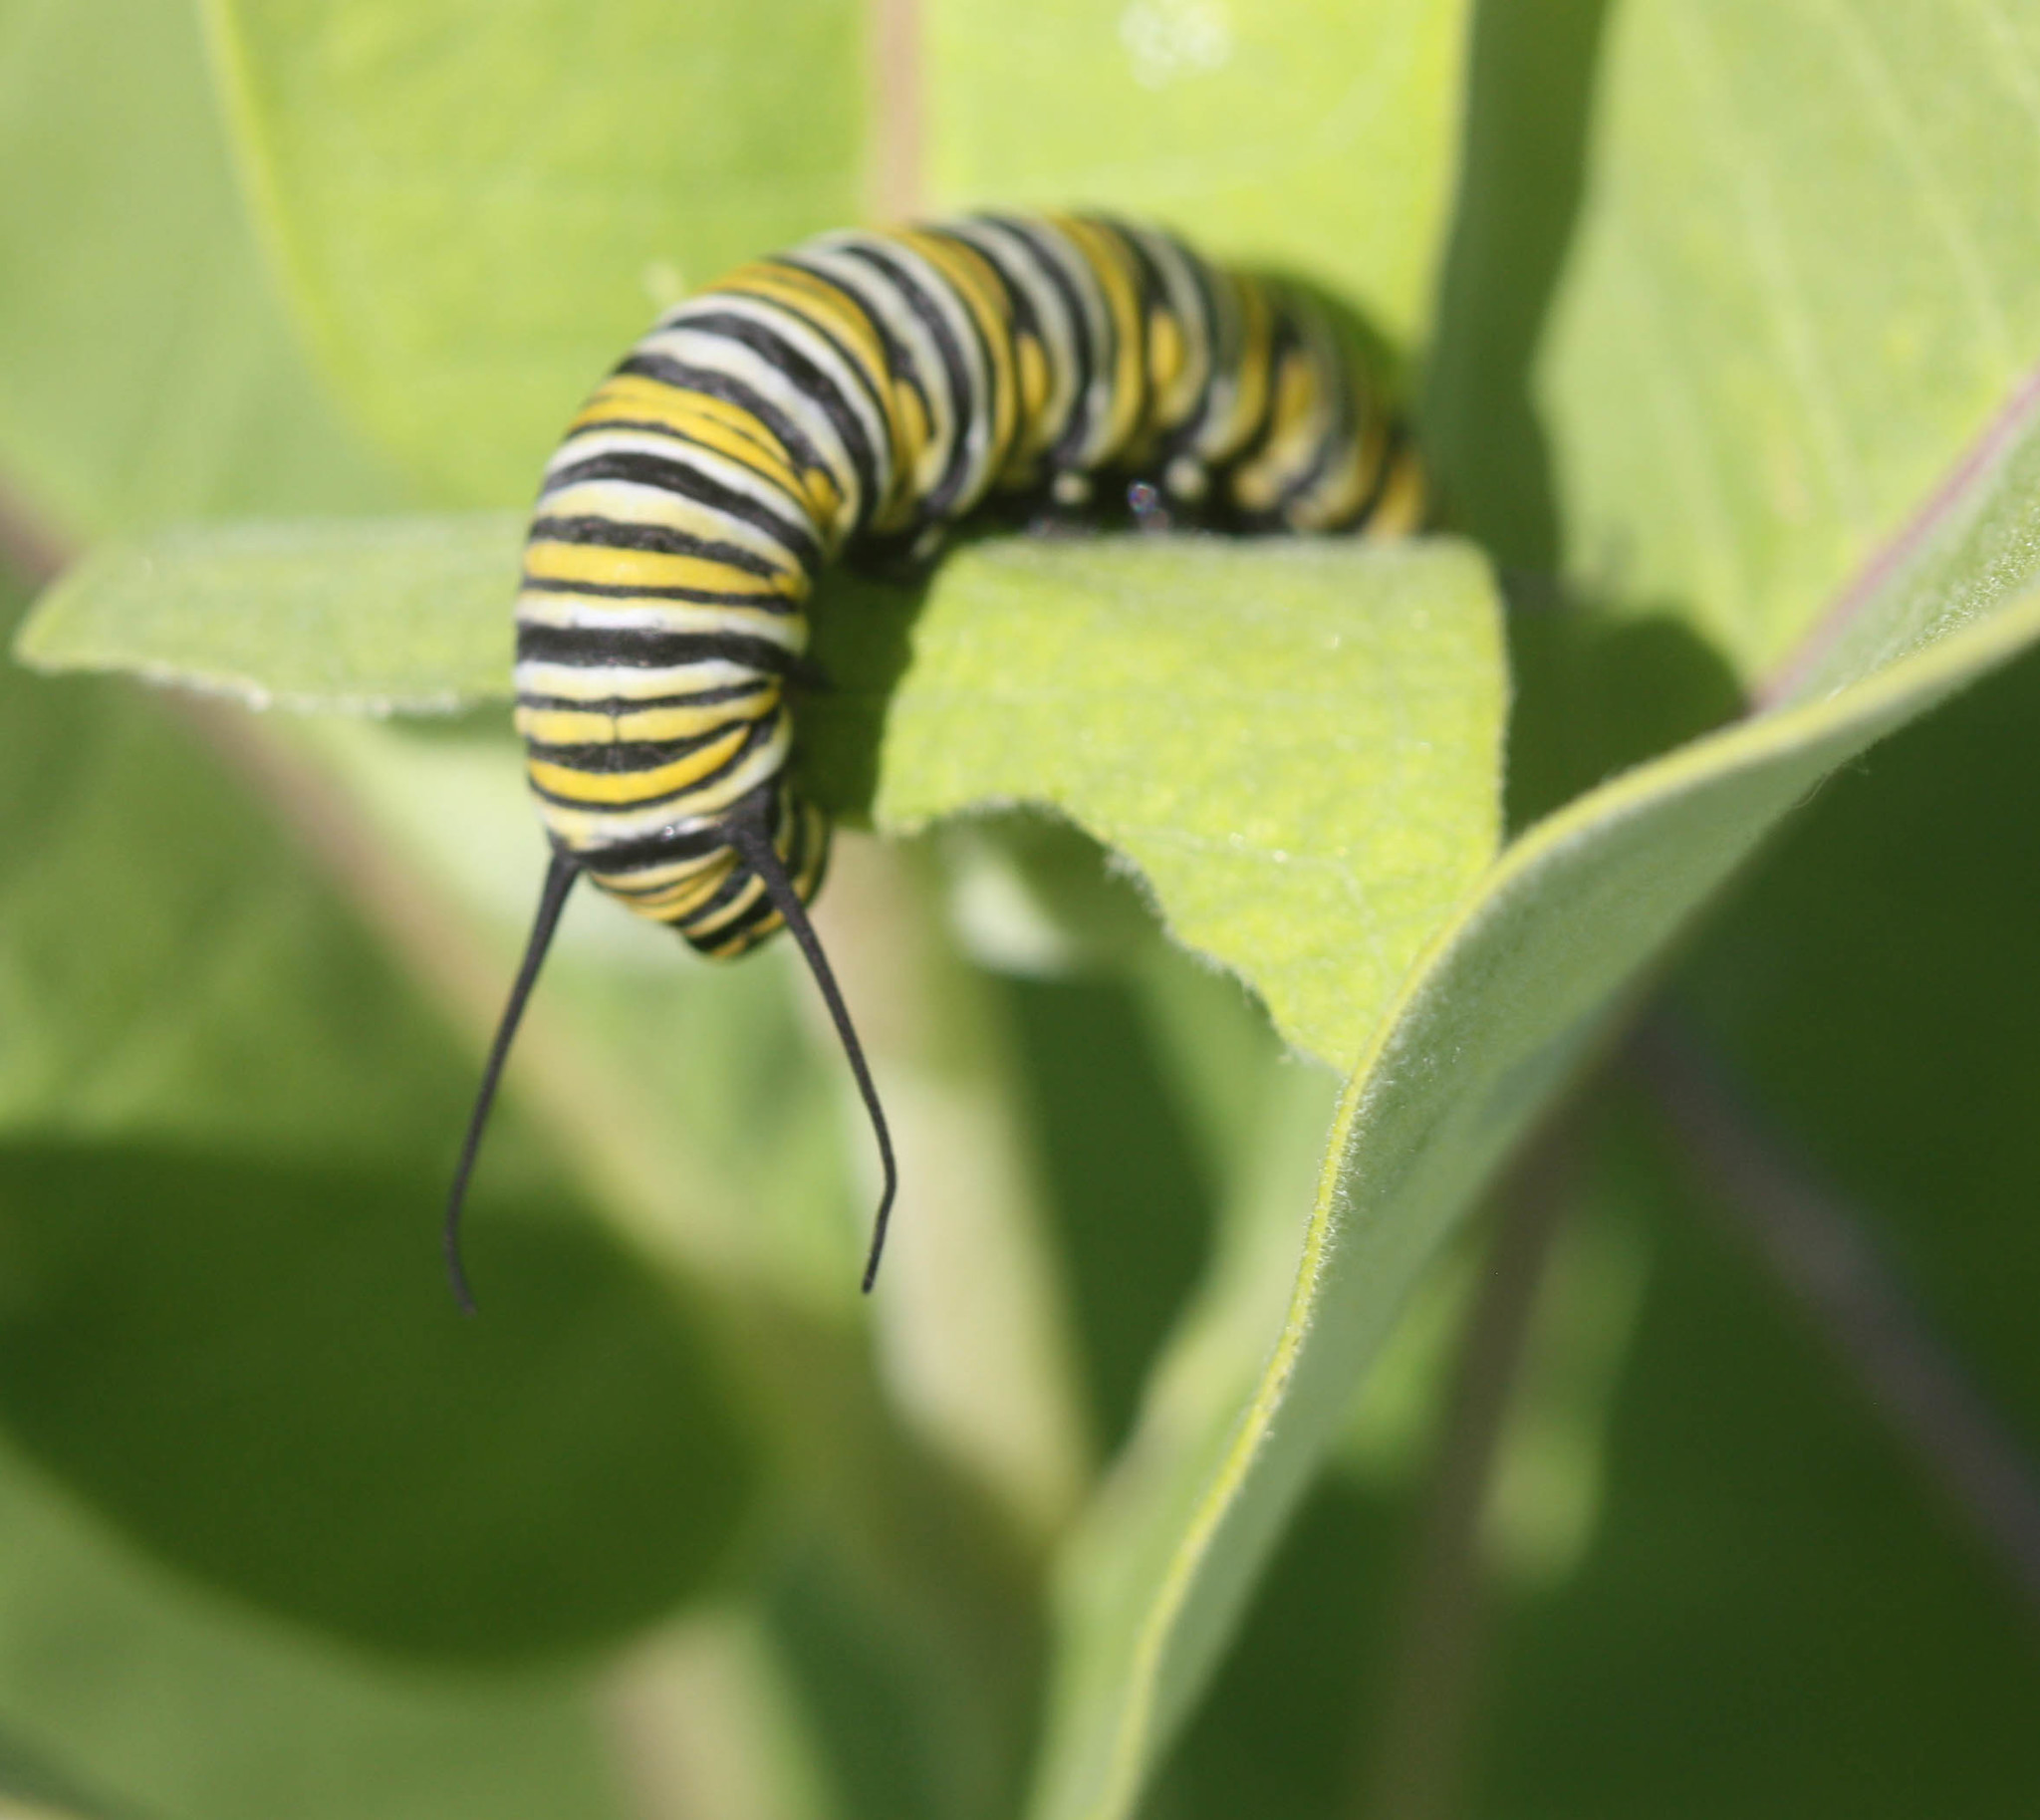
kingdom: Animalia
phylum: Arthropoda
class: Insecta
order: Lepidoptera
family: Nymphalidae
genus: Danaus
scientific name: Danaus plexippus
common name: Monarch
